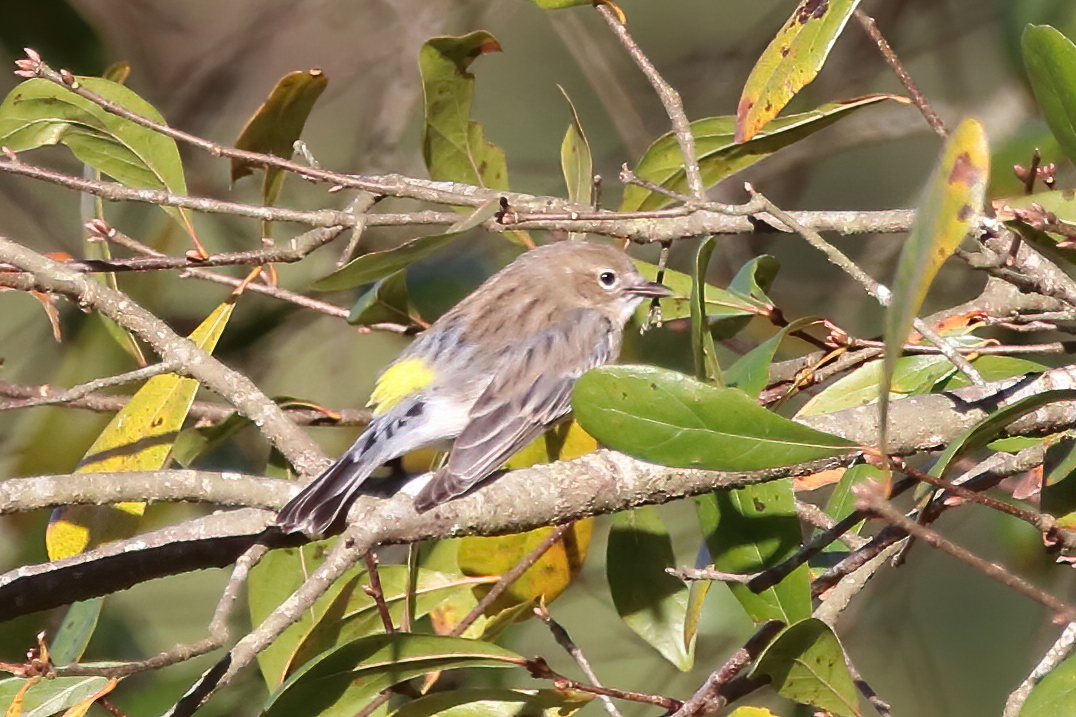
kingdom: Animalia
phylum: Chordata
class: Aves
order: Passeriformes
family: Parulidae
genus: Setophaga
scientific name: Setophaga coronata
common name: Myrtle warbler
